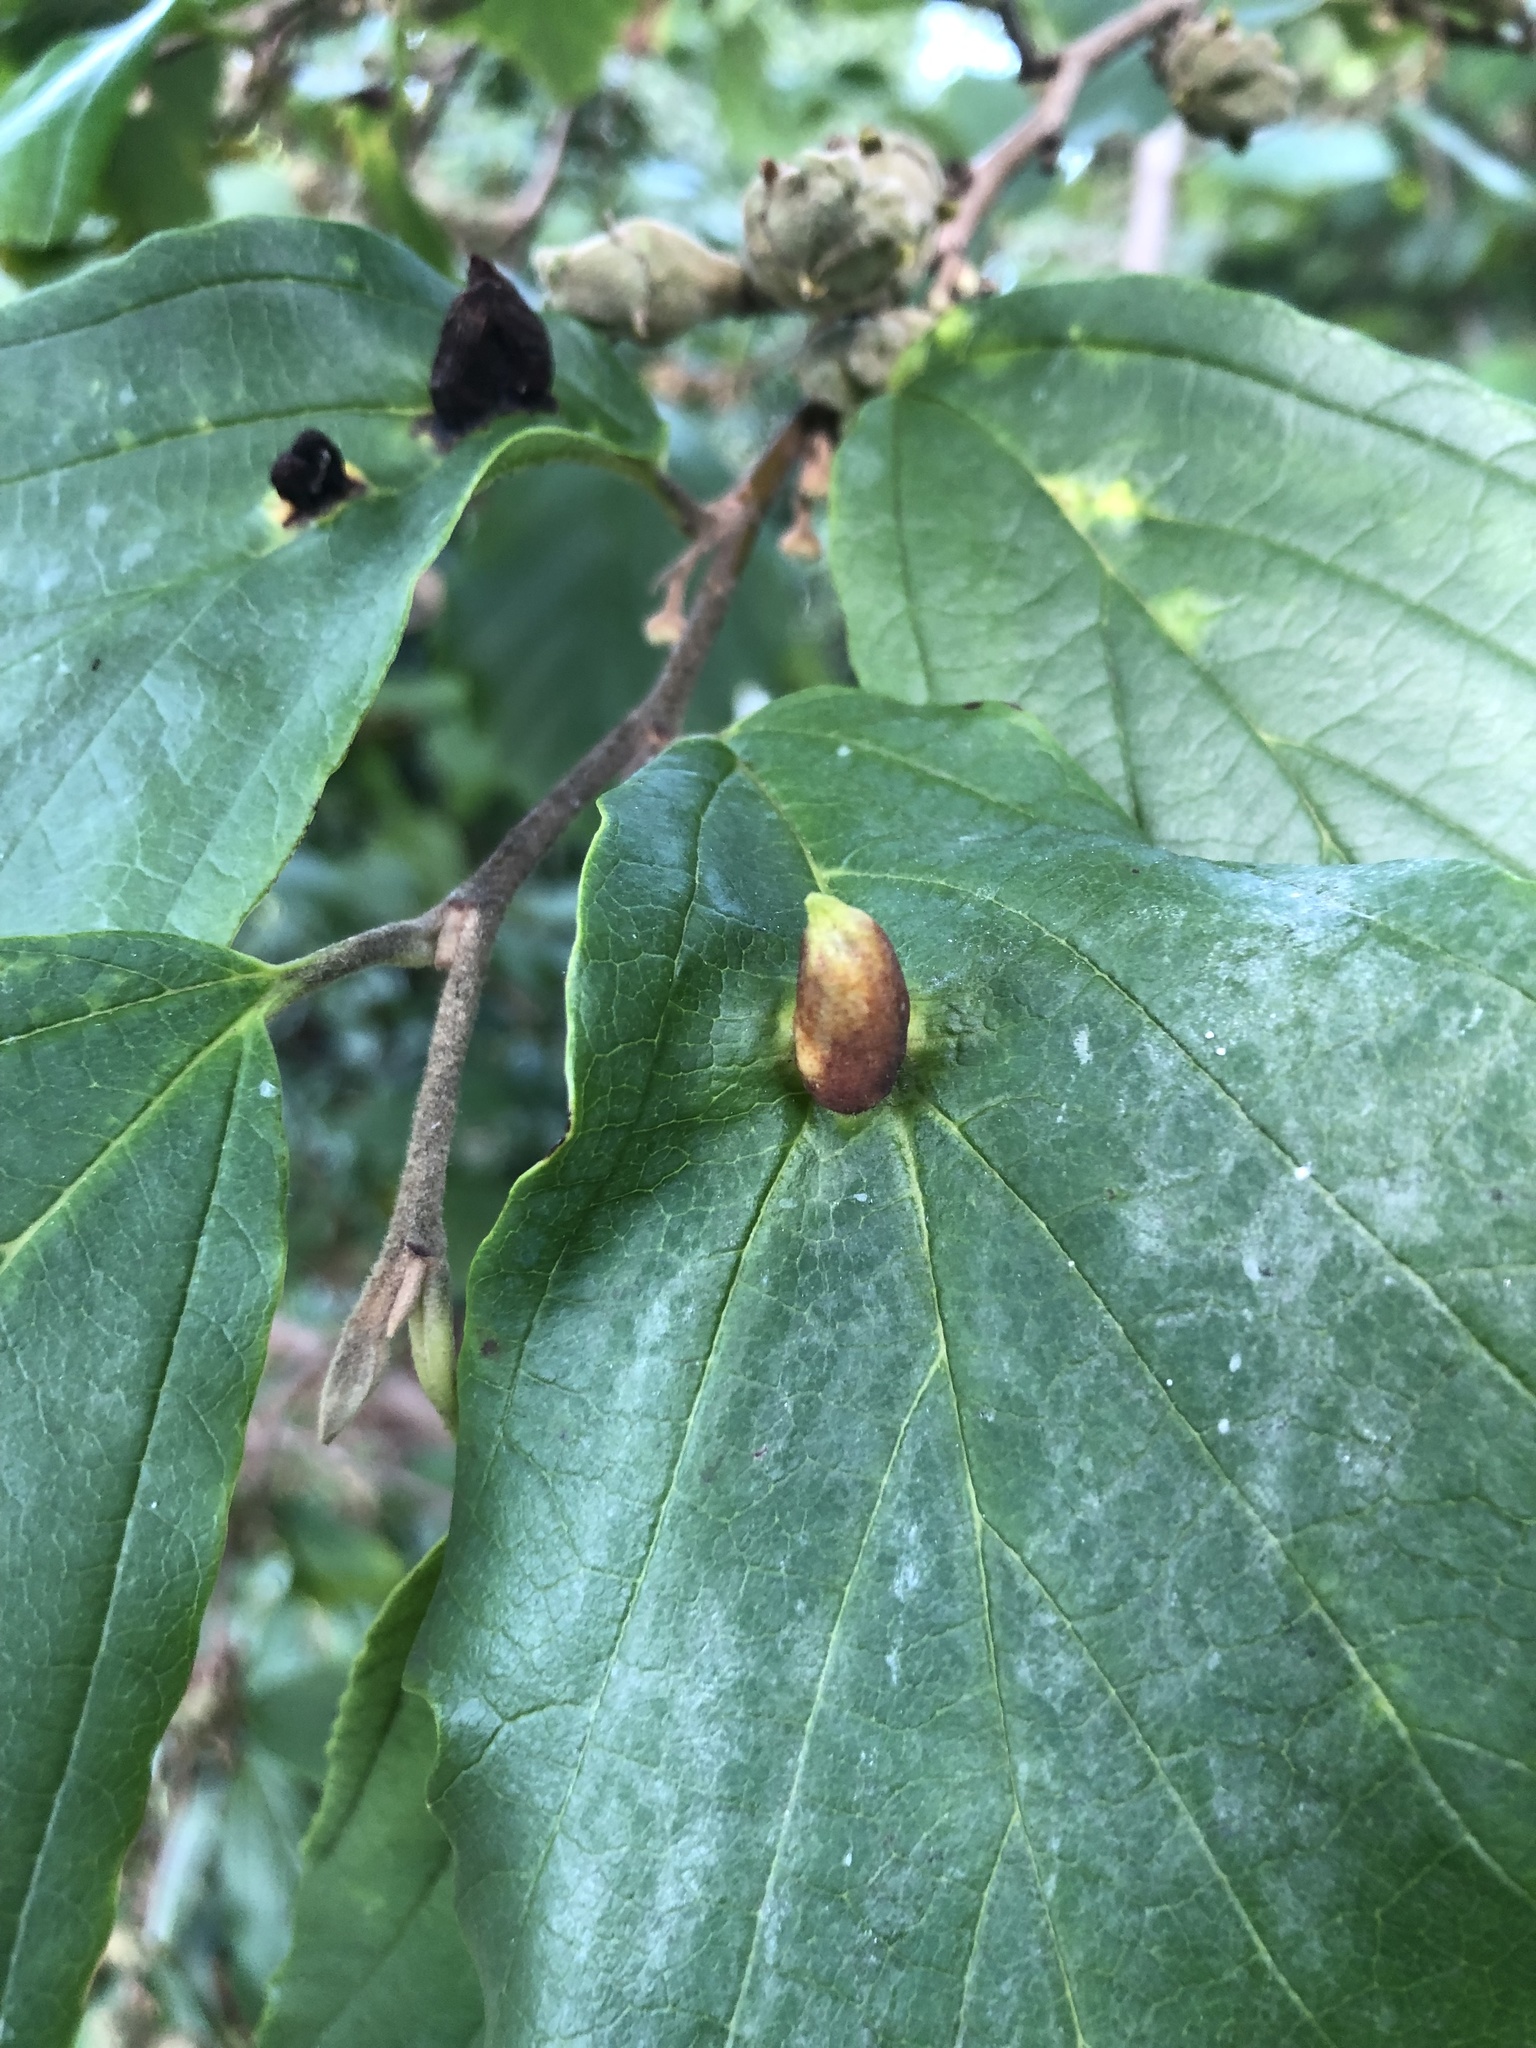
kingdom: Animalia
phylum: Arthropoda
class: Insecta
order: Hemiptera
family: Aphididae
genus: Hormaphis
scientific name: Hormaphis hamamelidis
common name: Witch-hazel cone gall aphid
